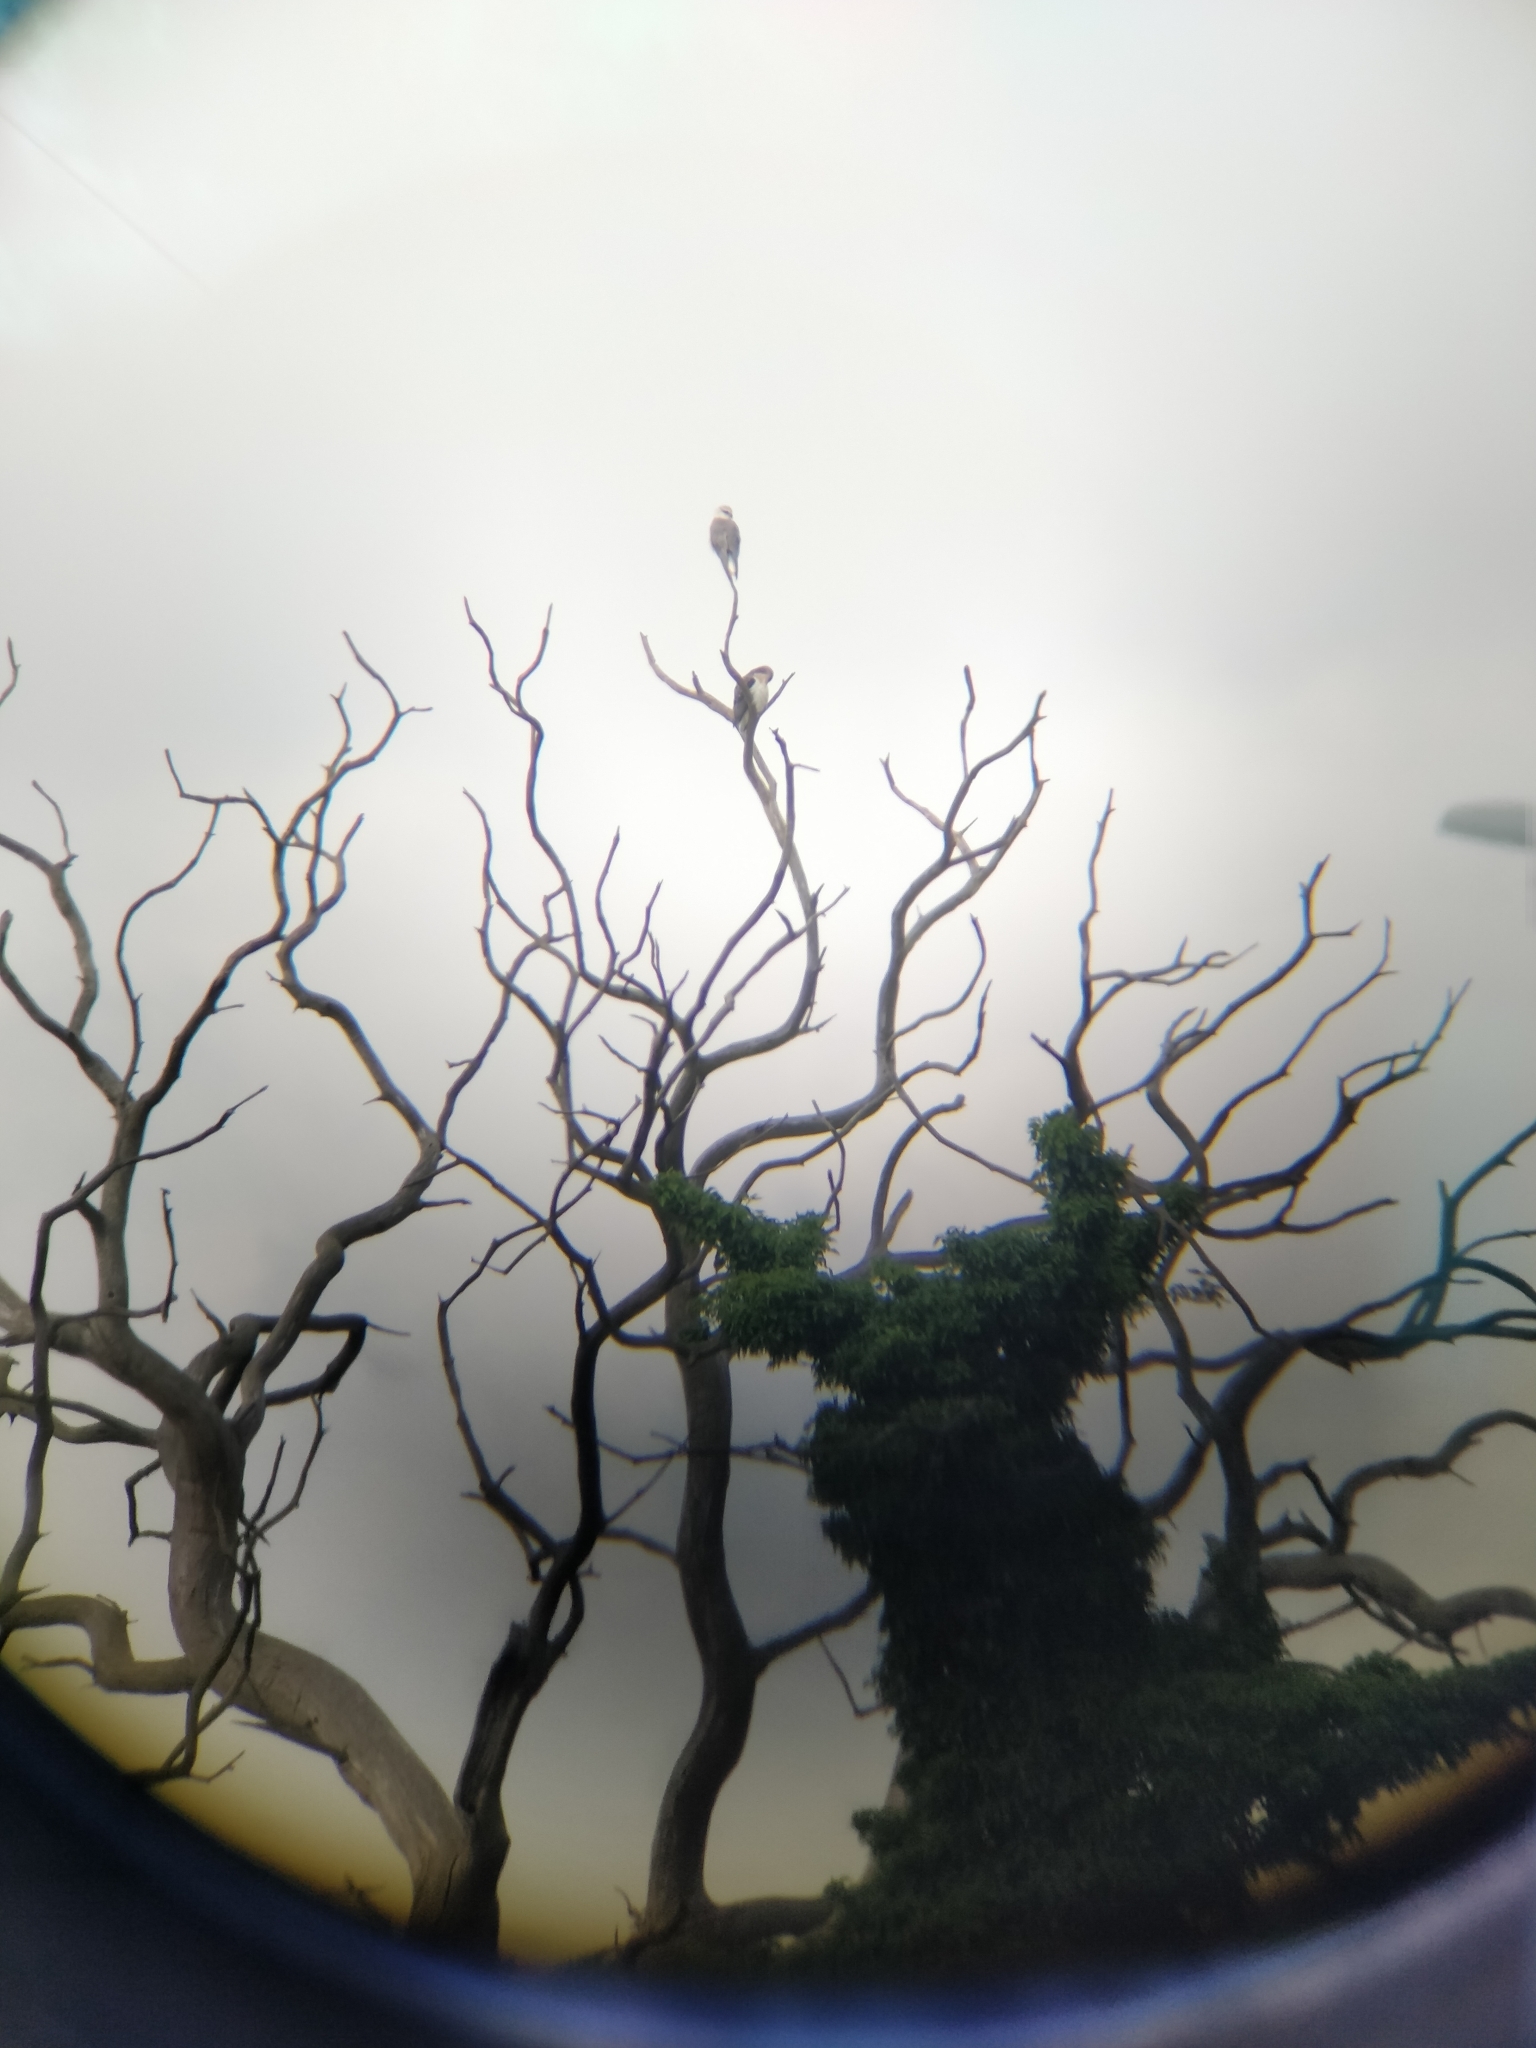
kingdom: Animalia
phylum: Chordata
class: Aves
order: Accipitriformes
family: Accipitridae
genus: Elanus
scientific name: Elanus caeruleus
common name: Black-winged kite
